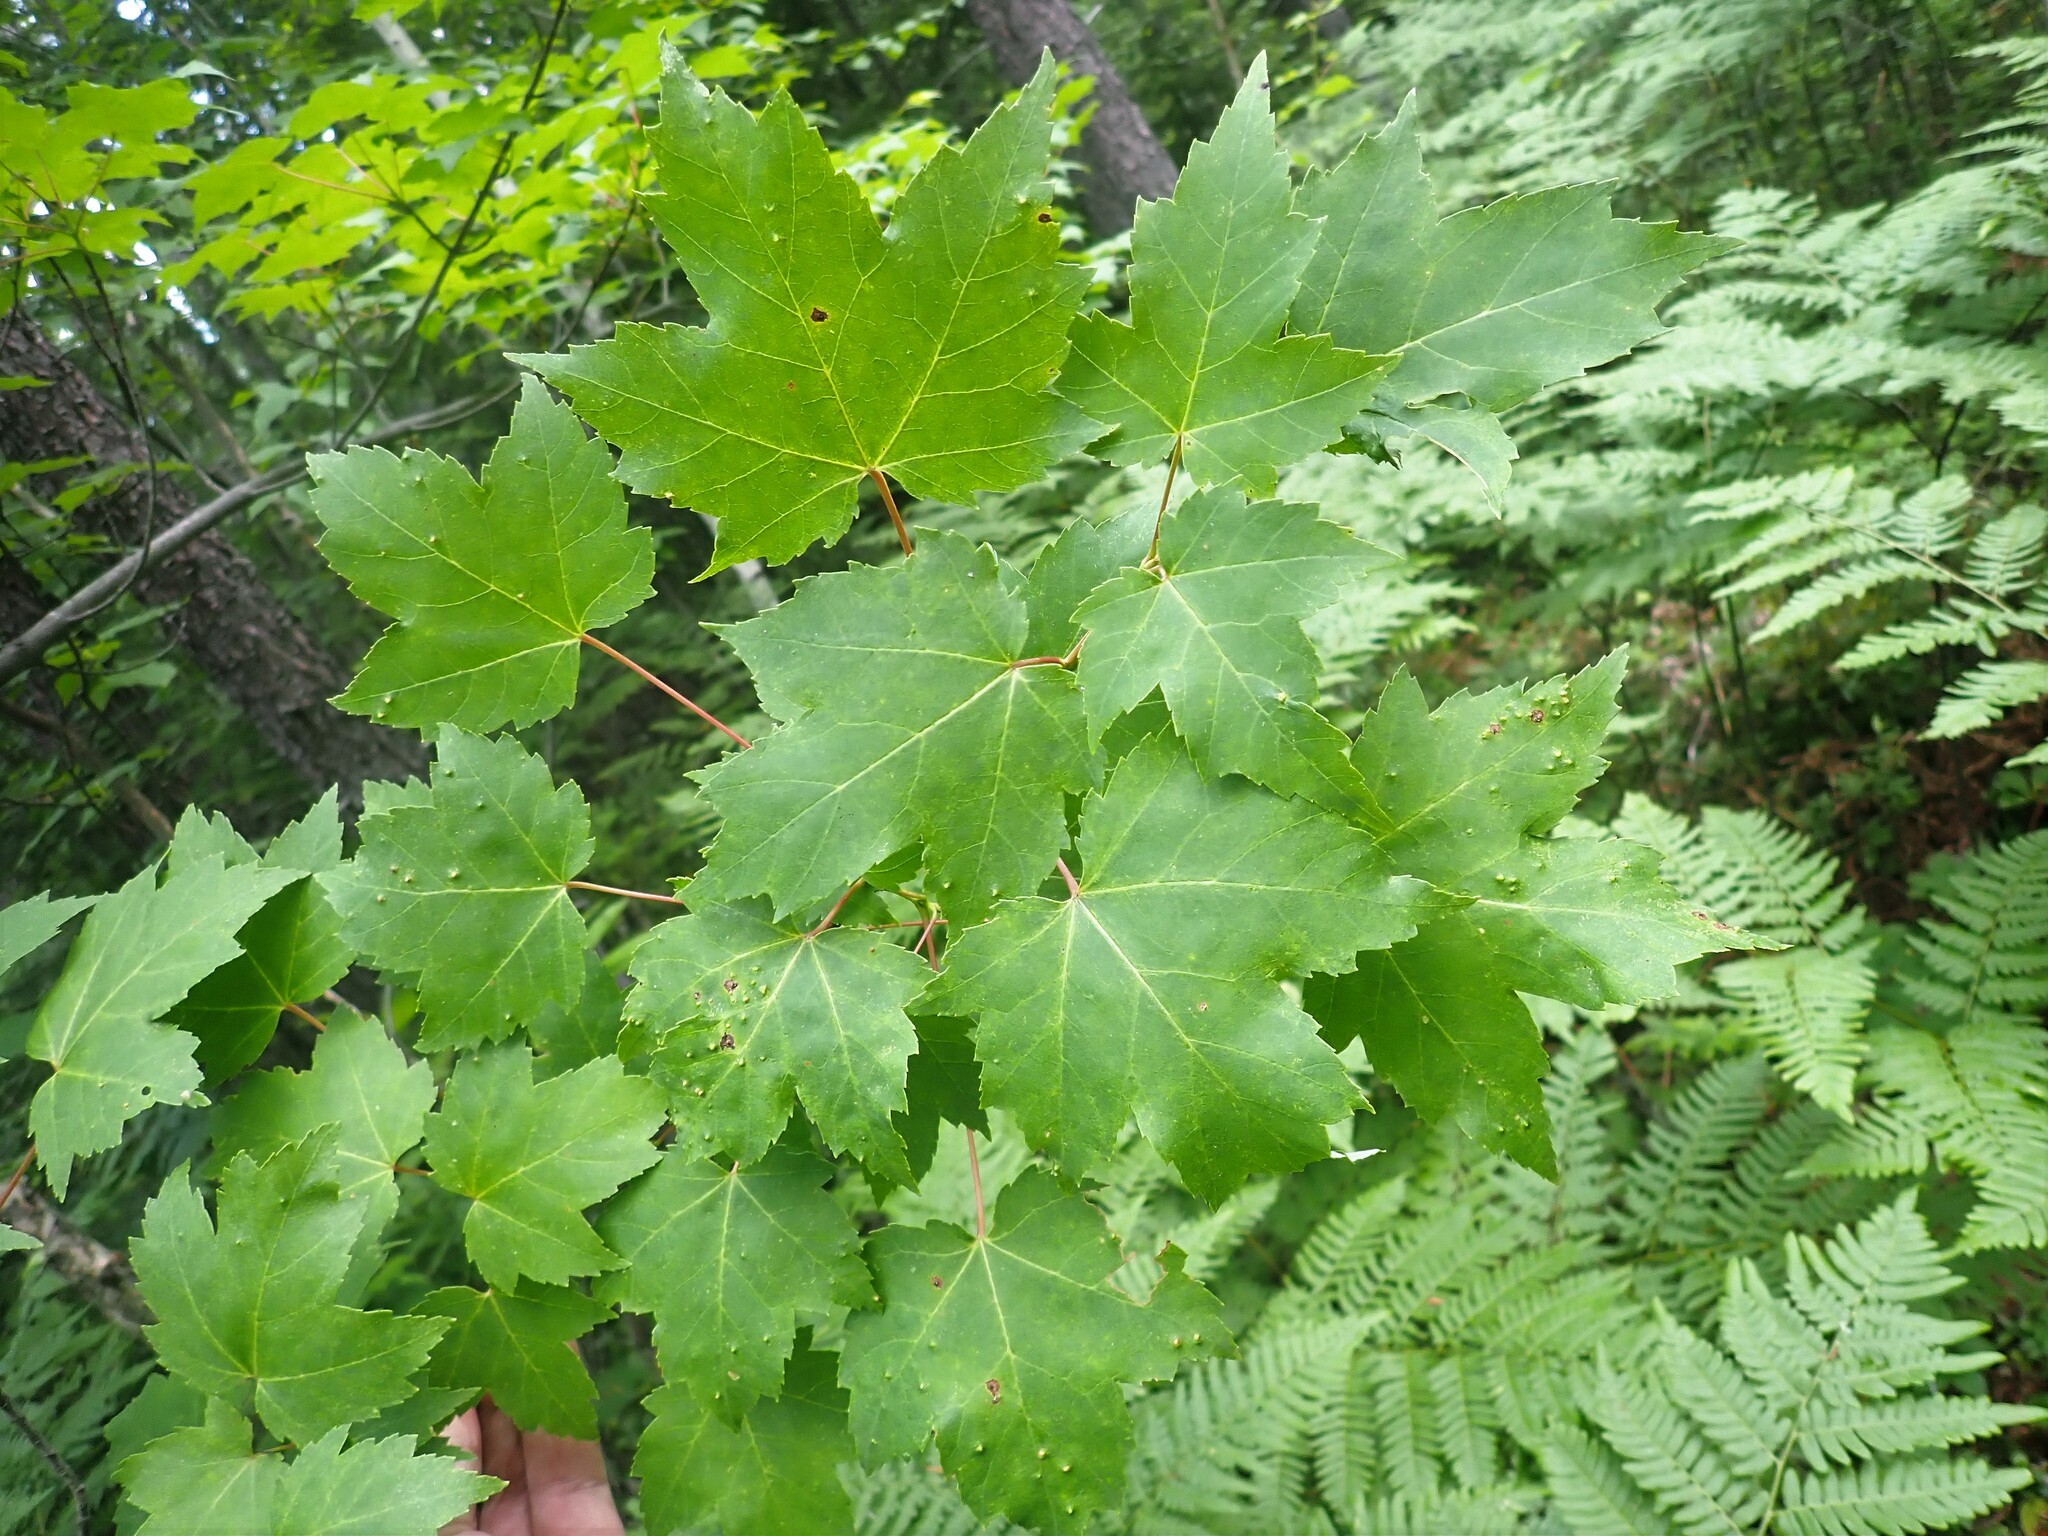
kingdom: Plantae
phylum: Tracheophyta
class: Magnoliopsida
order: Sapindales
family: Sapindaceae
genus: Acer
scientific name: Acer rubrum
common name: Red maple
